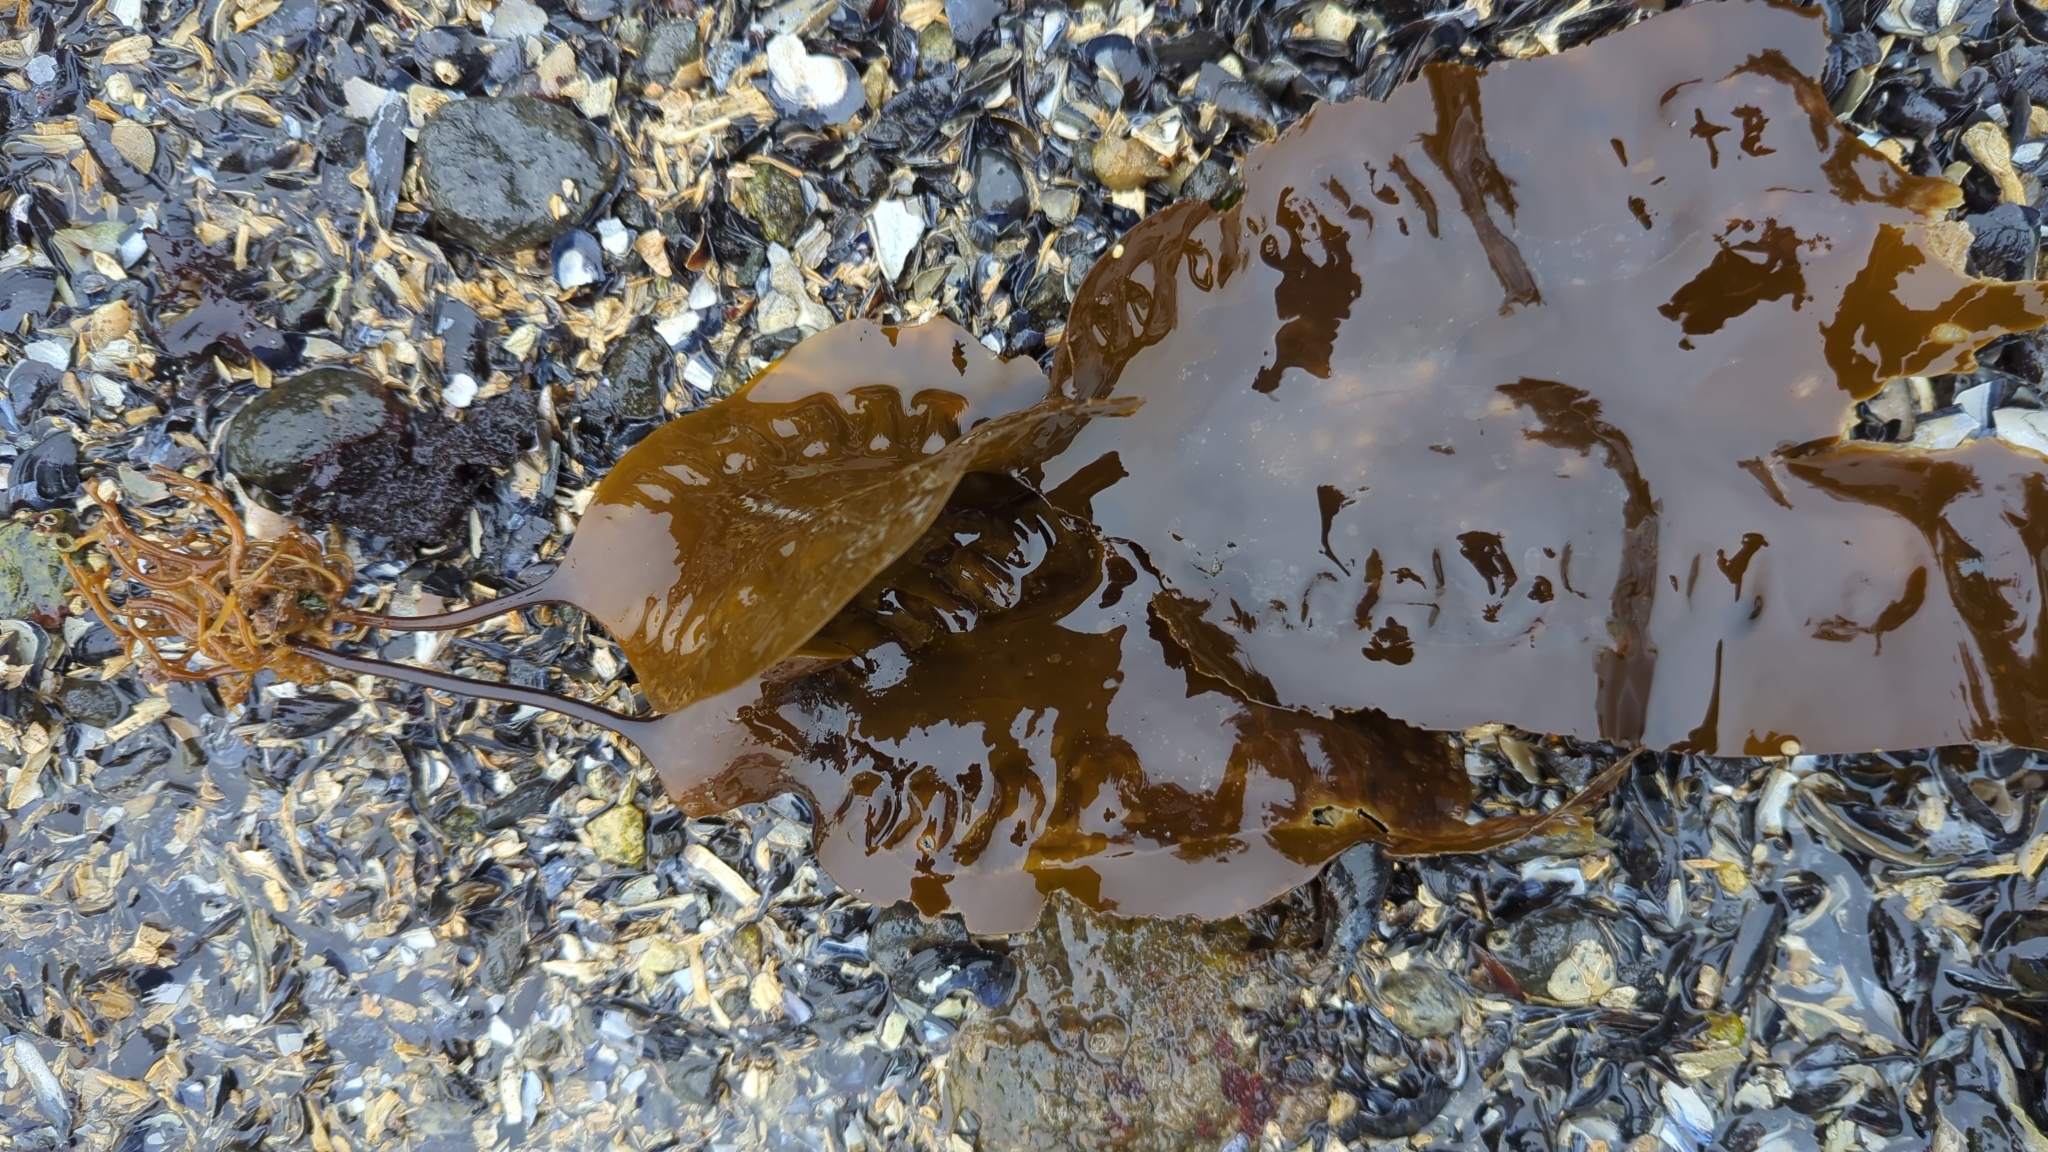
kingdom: Chromista
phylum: Ochrophyta
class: Phaeophyceae
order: Laminariales
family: Laminariaceae
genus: Saccharina
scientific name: Saccharina latissima
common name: Poor man's weather glass
